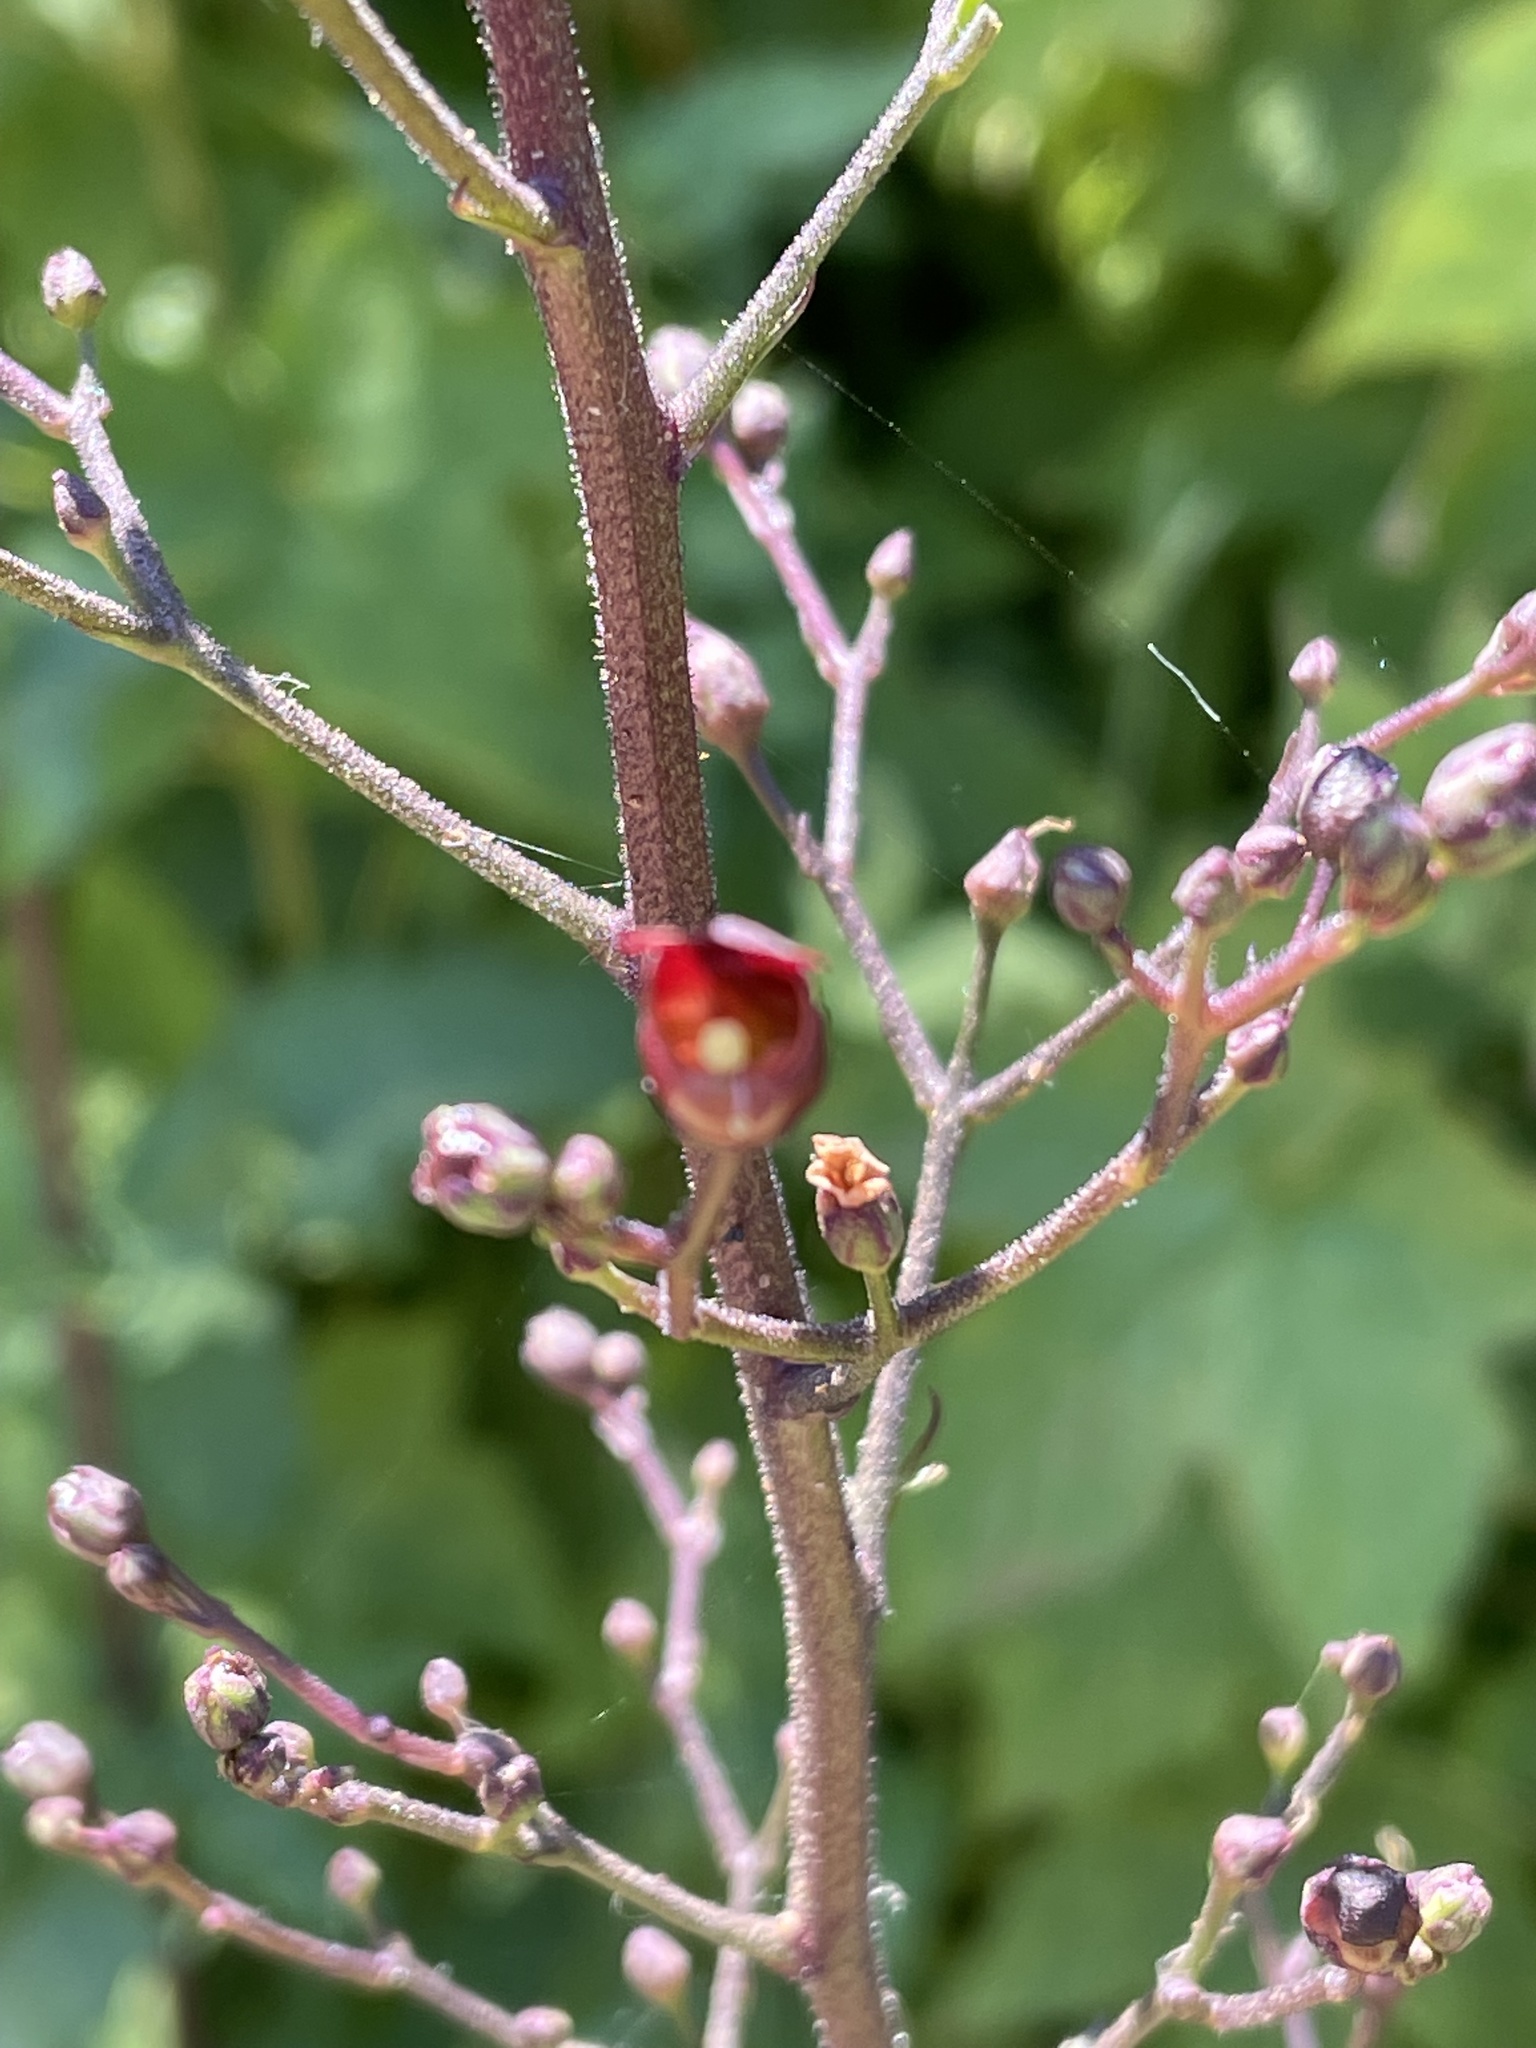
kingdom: Plantae
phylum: Tracheophyta
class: Magnoliopsida
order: Lamiales
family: Scrophulariaceae
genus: Scrophularia
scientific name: Scrophularia californica
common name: California figwort
